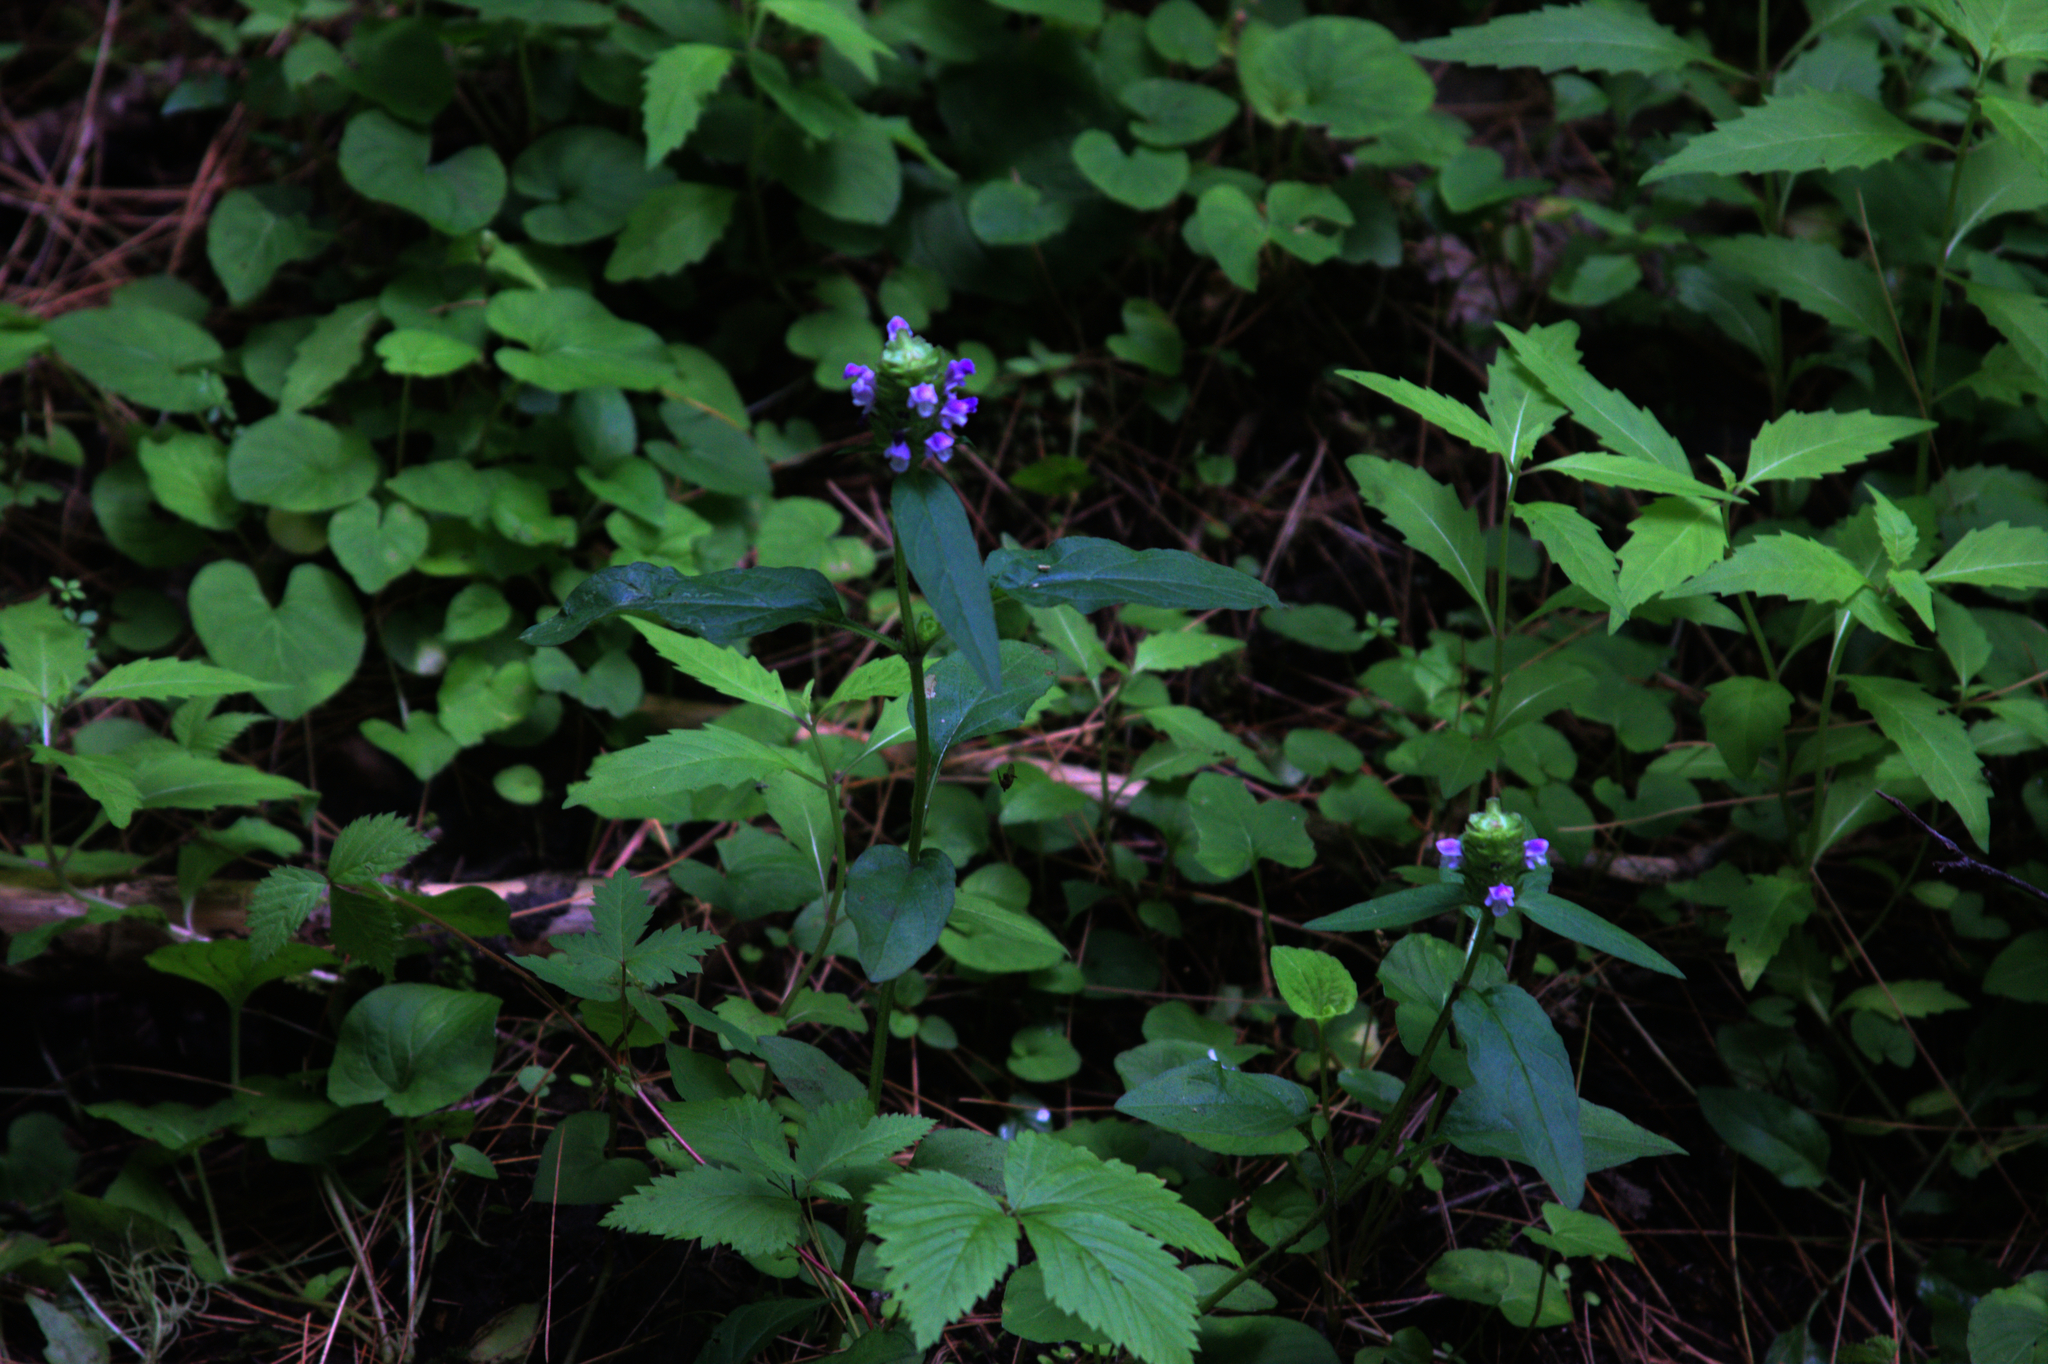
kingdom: Plantae
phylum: Tracheophyta
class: Magnoliopsida
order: Lamiales
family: Lamiaceae
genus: Prunella
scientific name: Prunella vulgaris
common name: Heal-all
